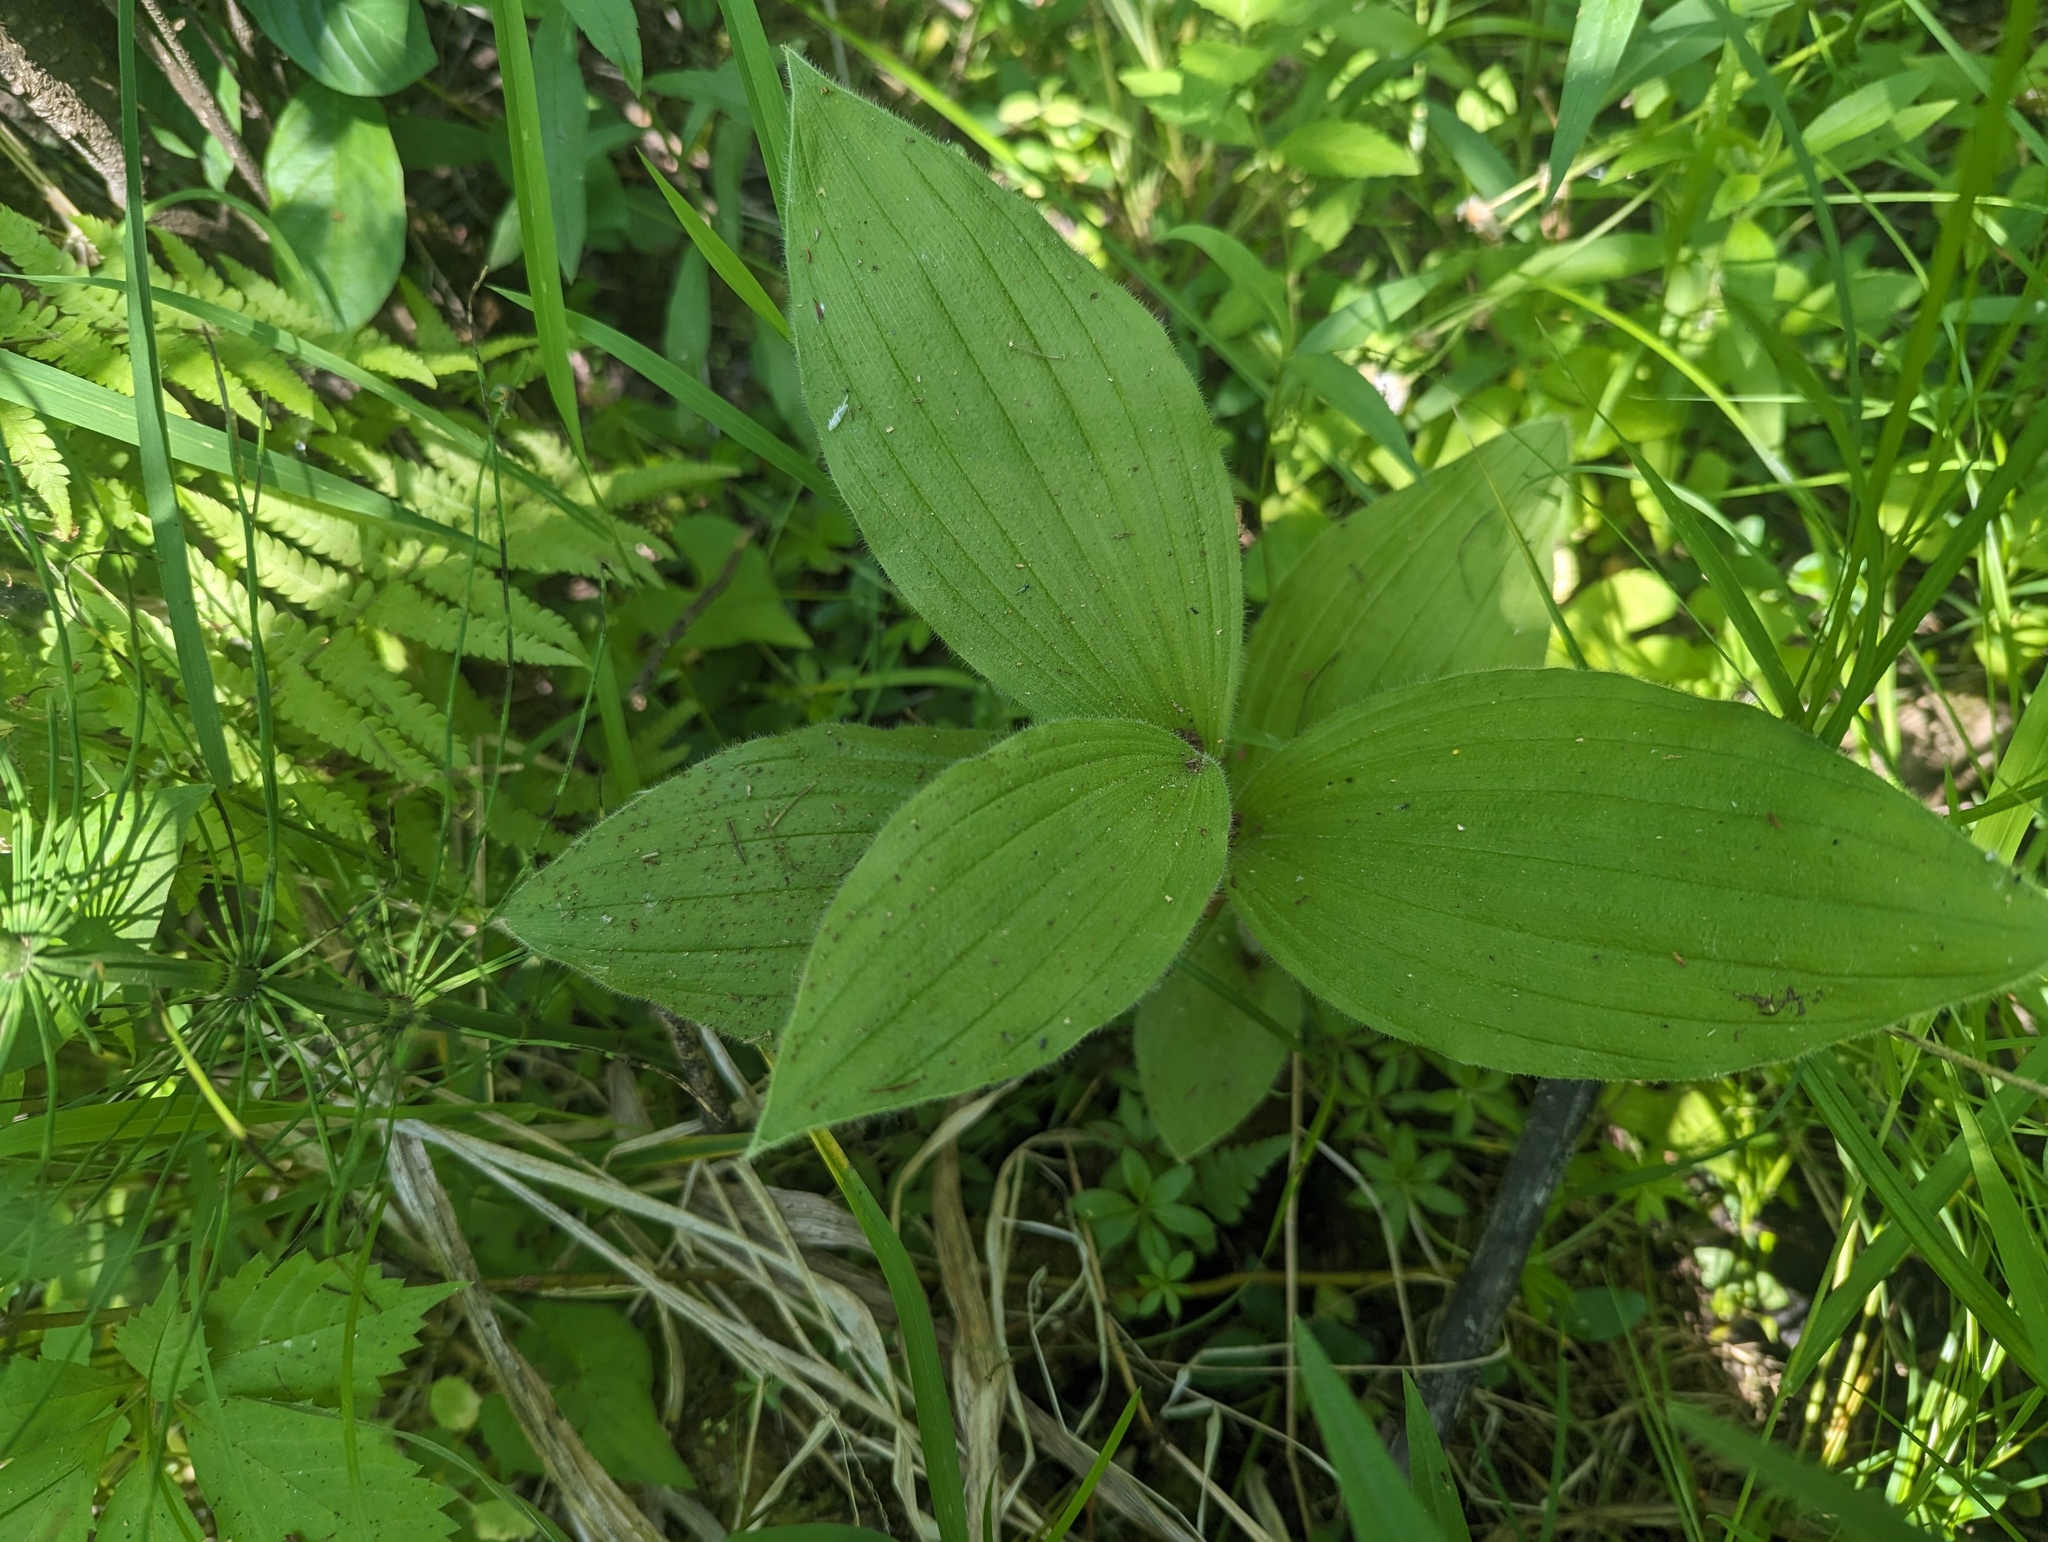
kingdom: Plantae
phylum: Tracheophyta
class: Liliopsida
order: Asparagales
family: Orchidaceae
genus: Cypripedium
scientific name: Cypripedium reginae
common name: Queen lady's-slipper
